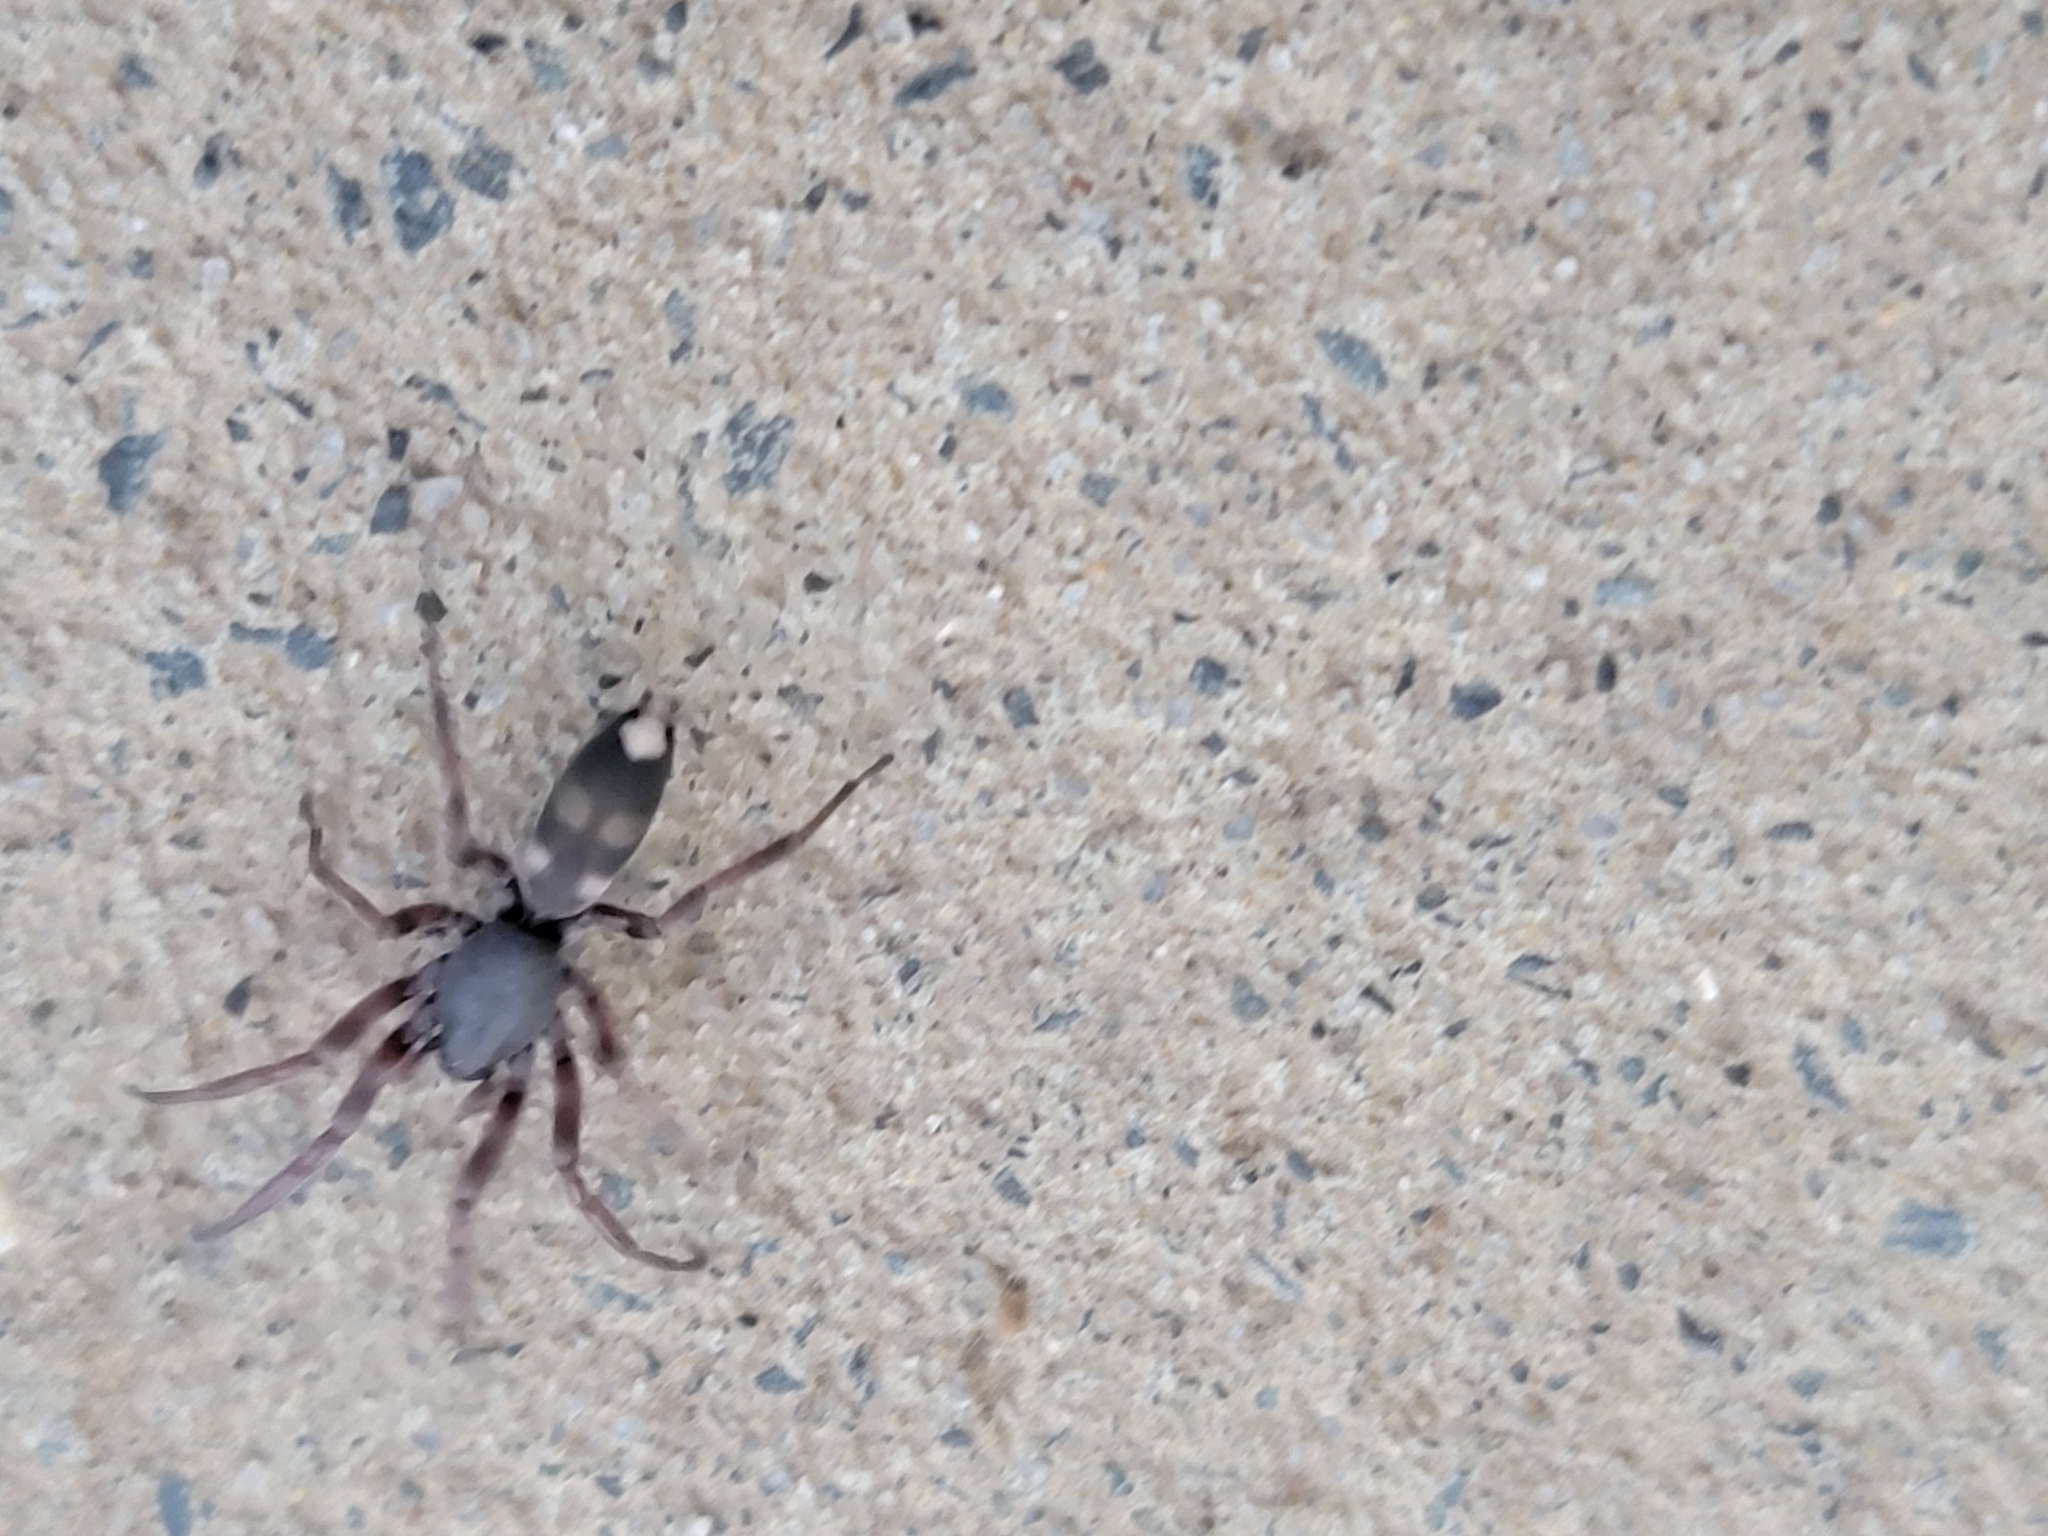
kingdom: Animalia
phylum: Arthropoda
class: Arachnida
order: Araneae
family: Lamponidae
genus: Lampona
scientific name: Lampona murina
